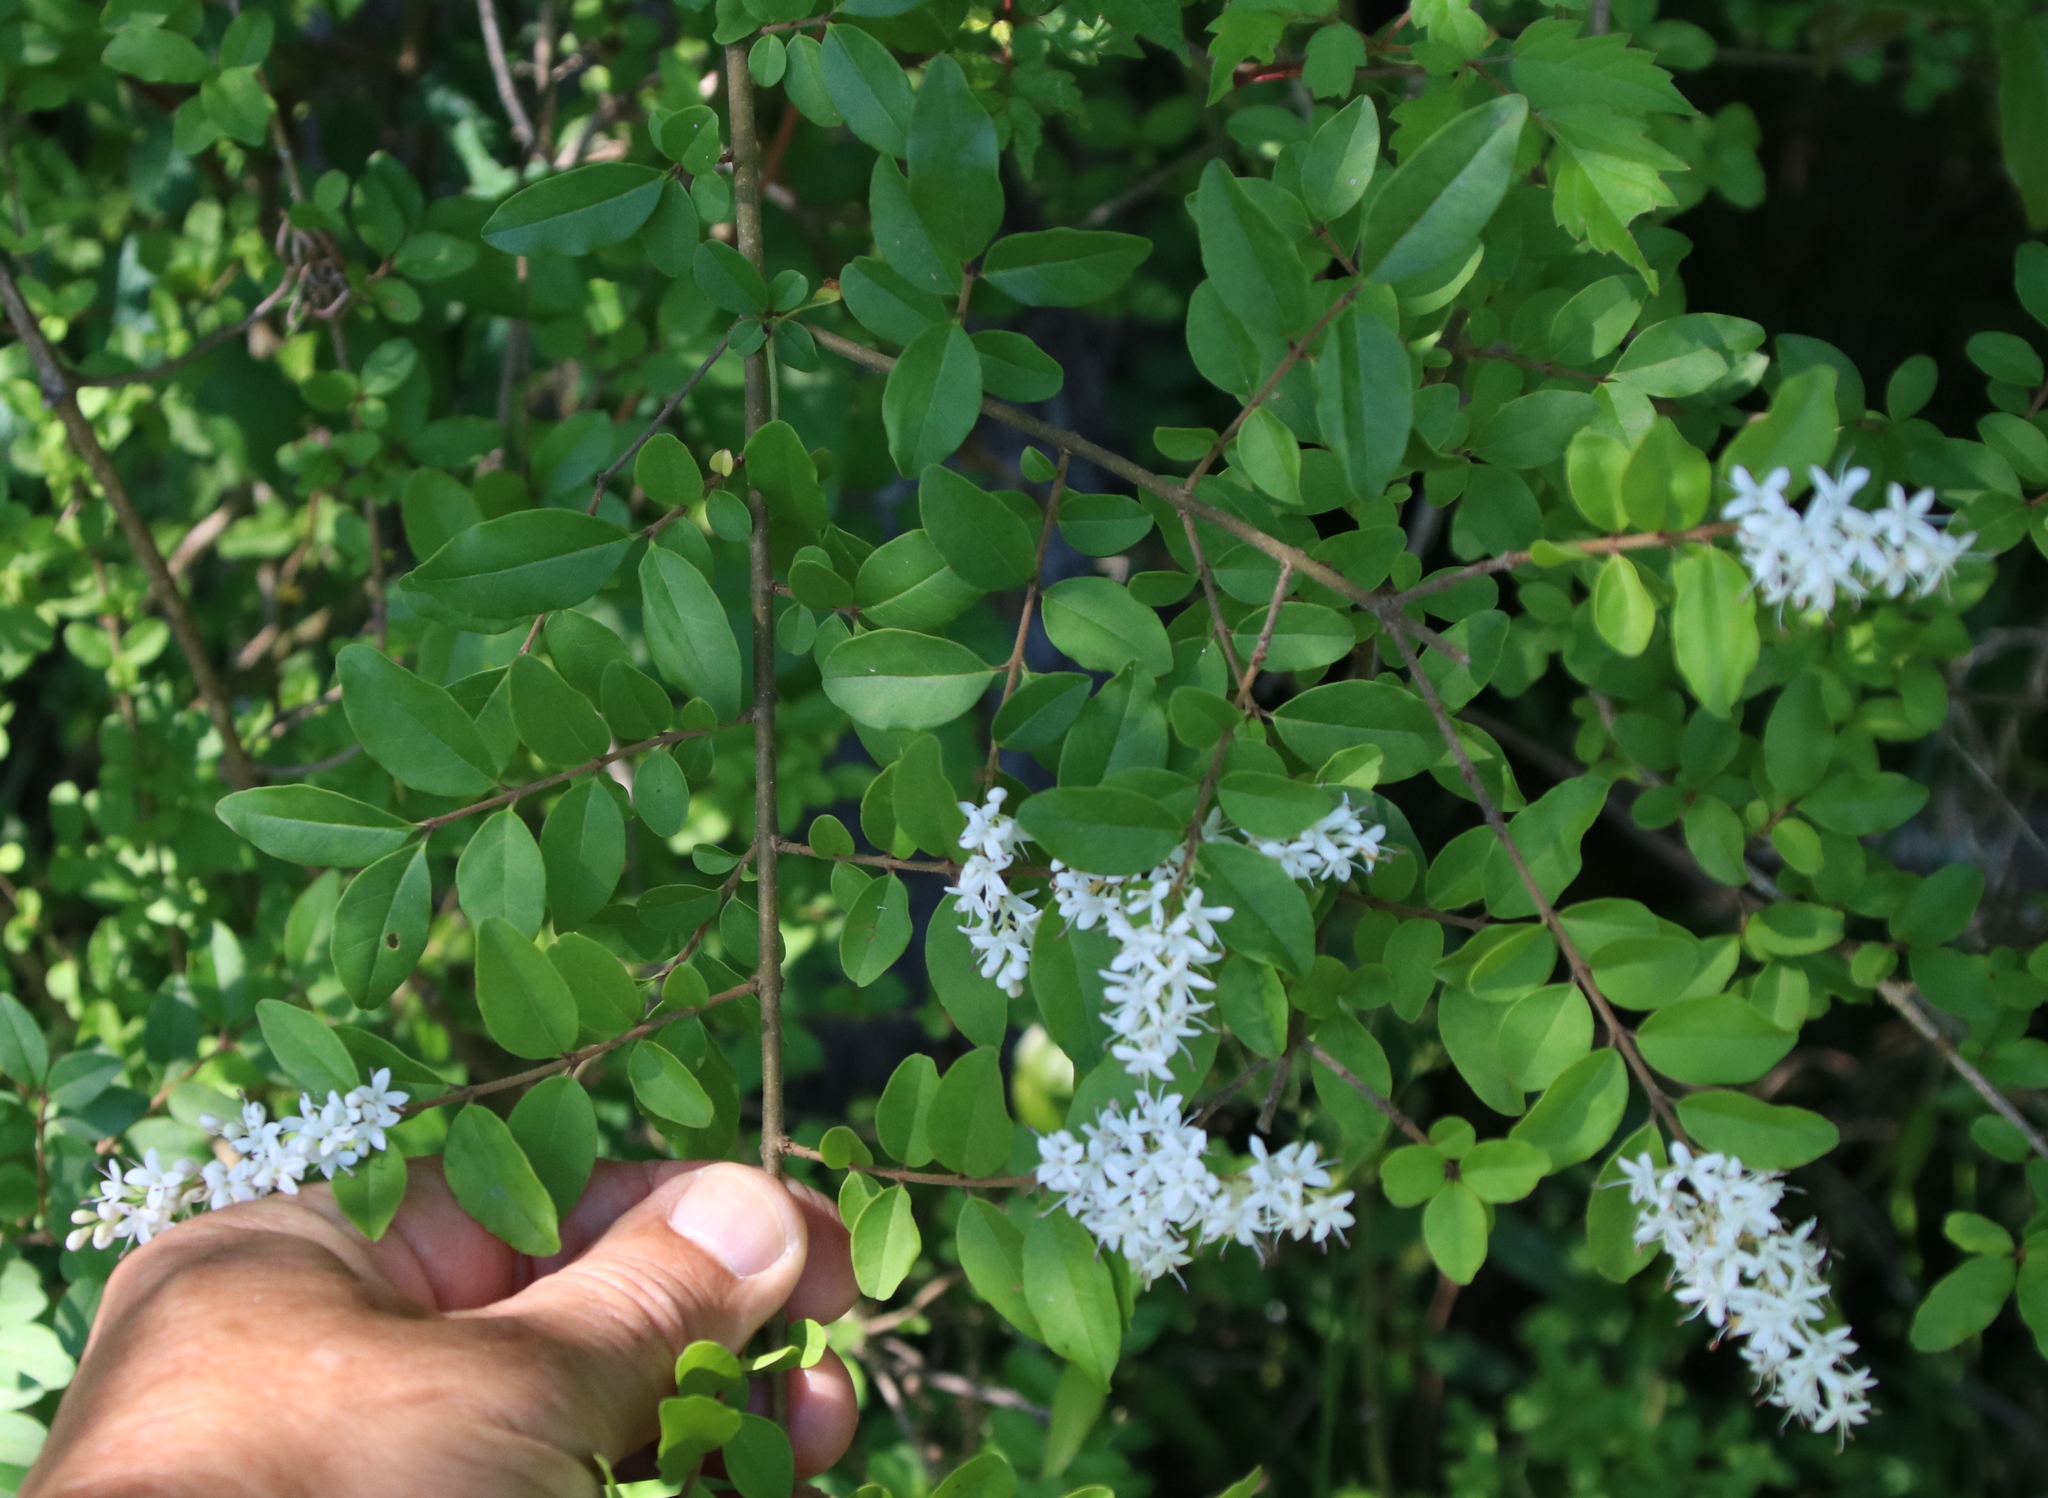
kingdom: Plantae
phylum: Tracheophyta
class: Magnoliopsida
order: Lamiales
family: Oleaceae
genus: Ligustrum
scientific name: Ligustrum sinense
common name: Chinese privet
